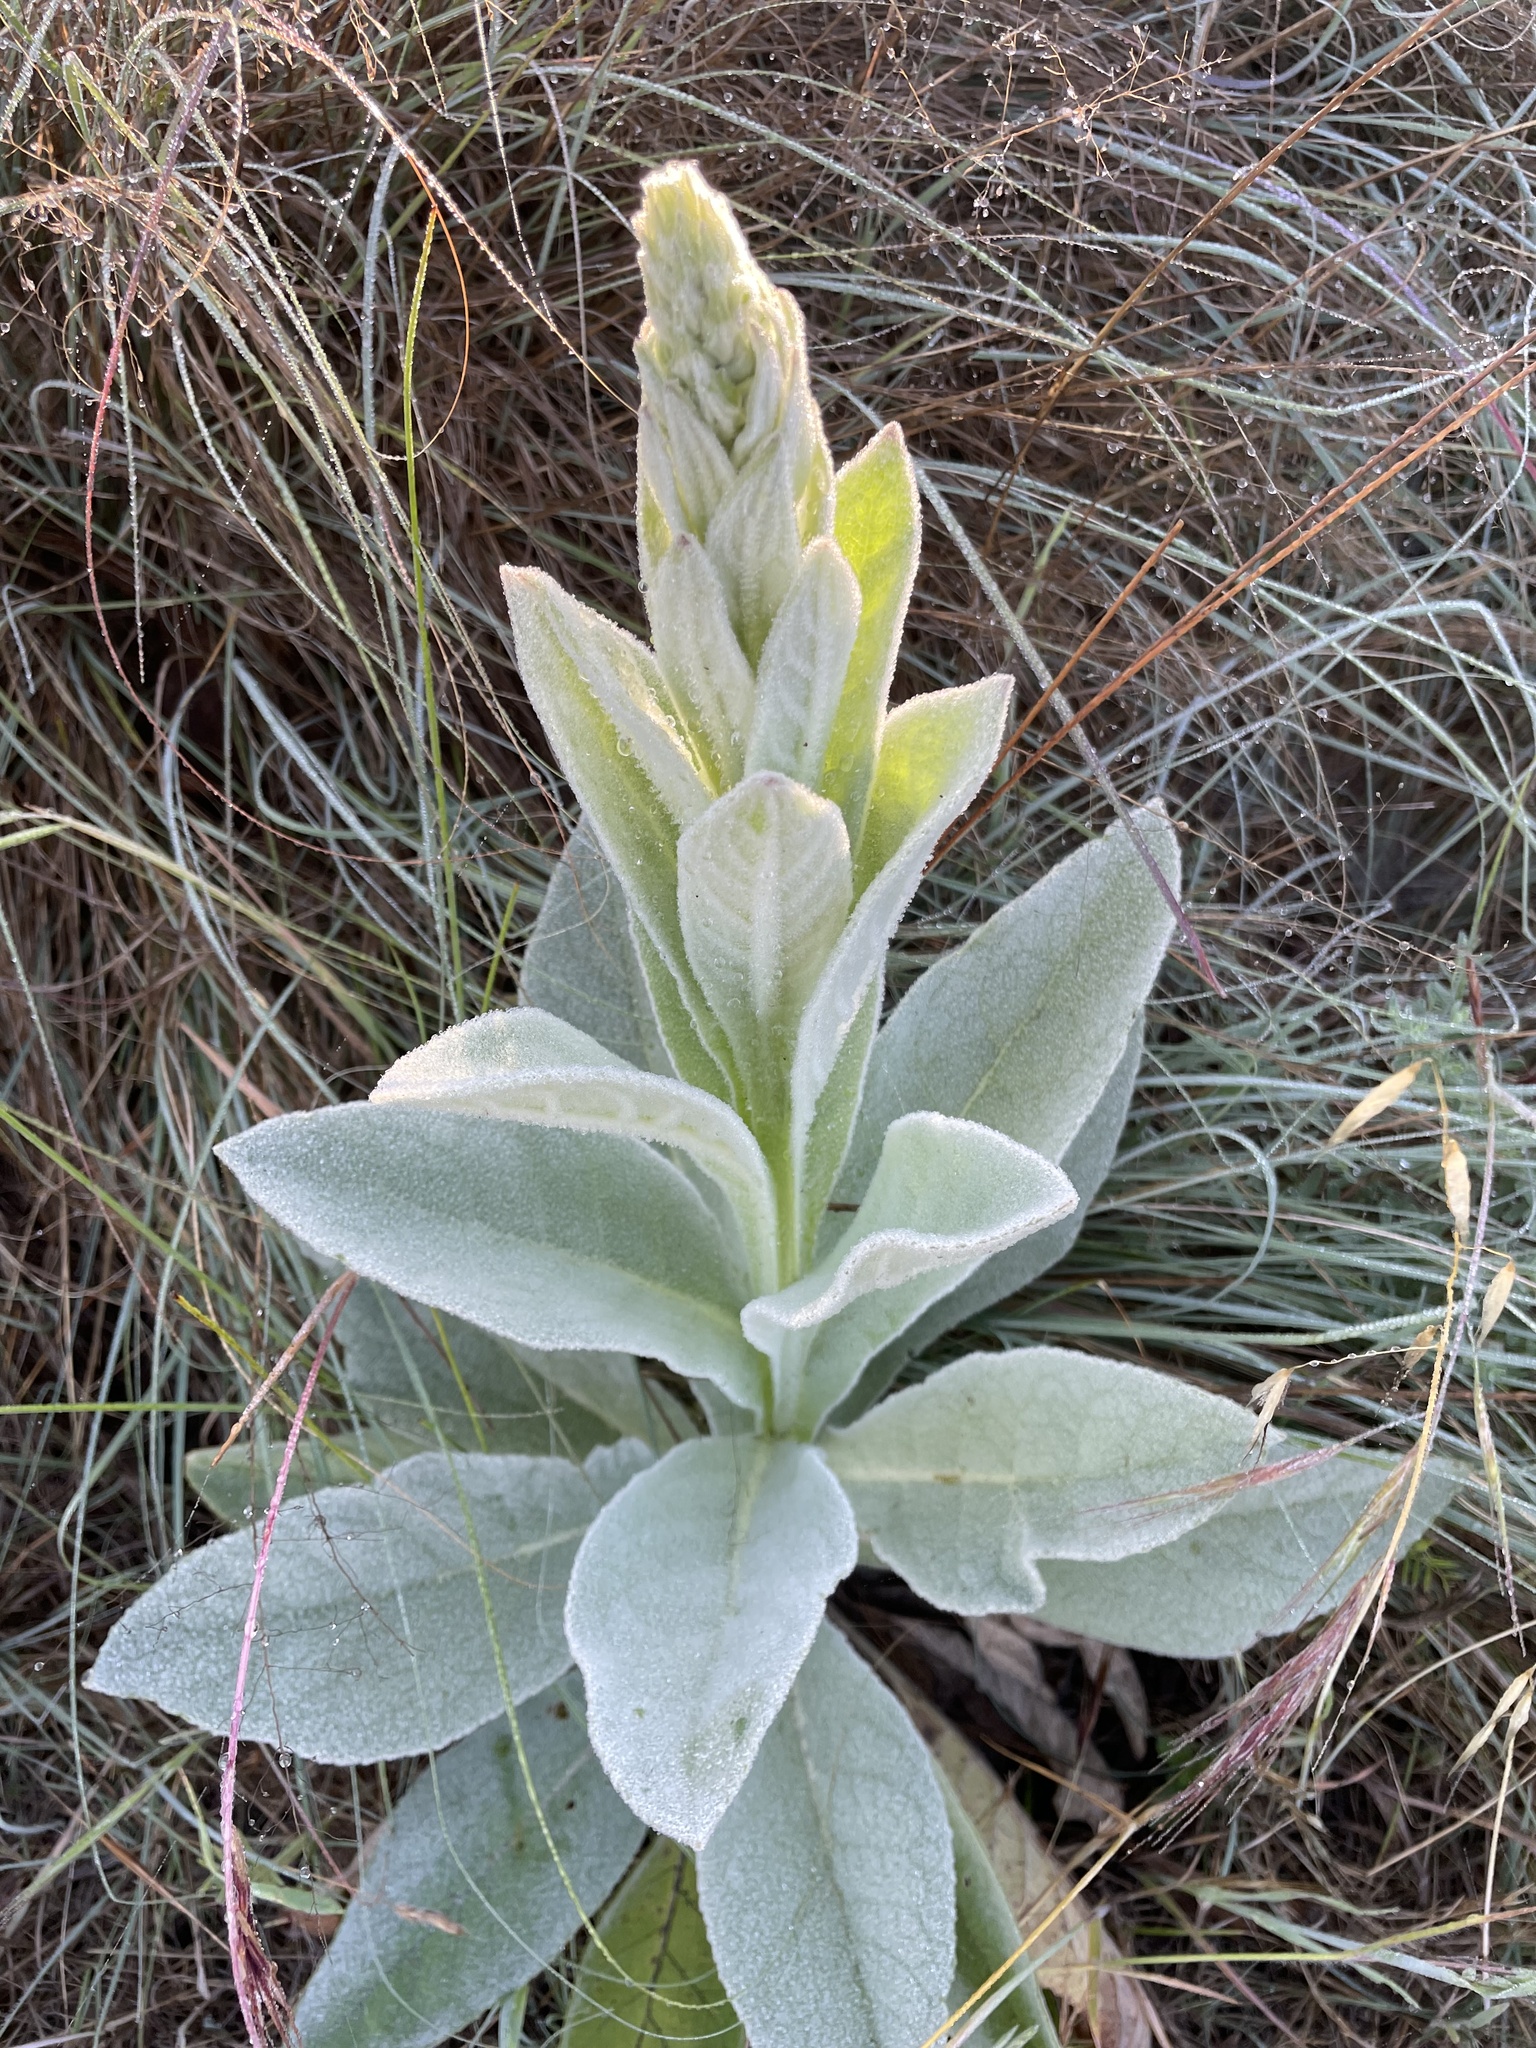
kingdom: Plantae
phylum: Tracheophyta
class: Magnoliopsida
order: Lamiales
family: Scrophulariaceae
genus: Verbascum
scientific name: Verbascum thapsus
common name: Common mullein
